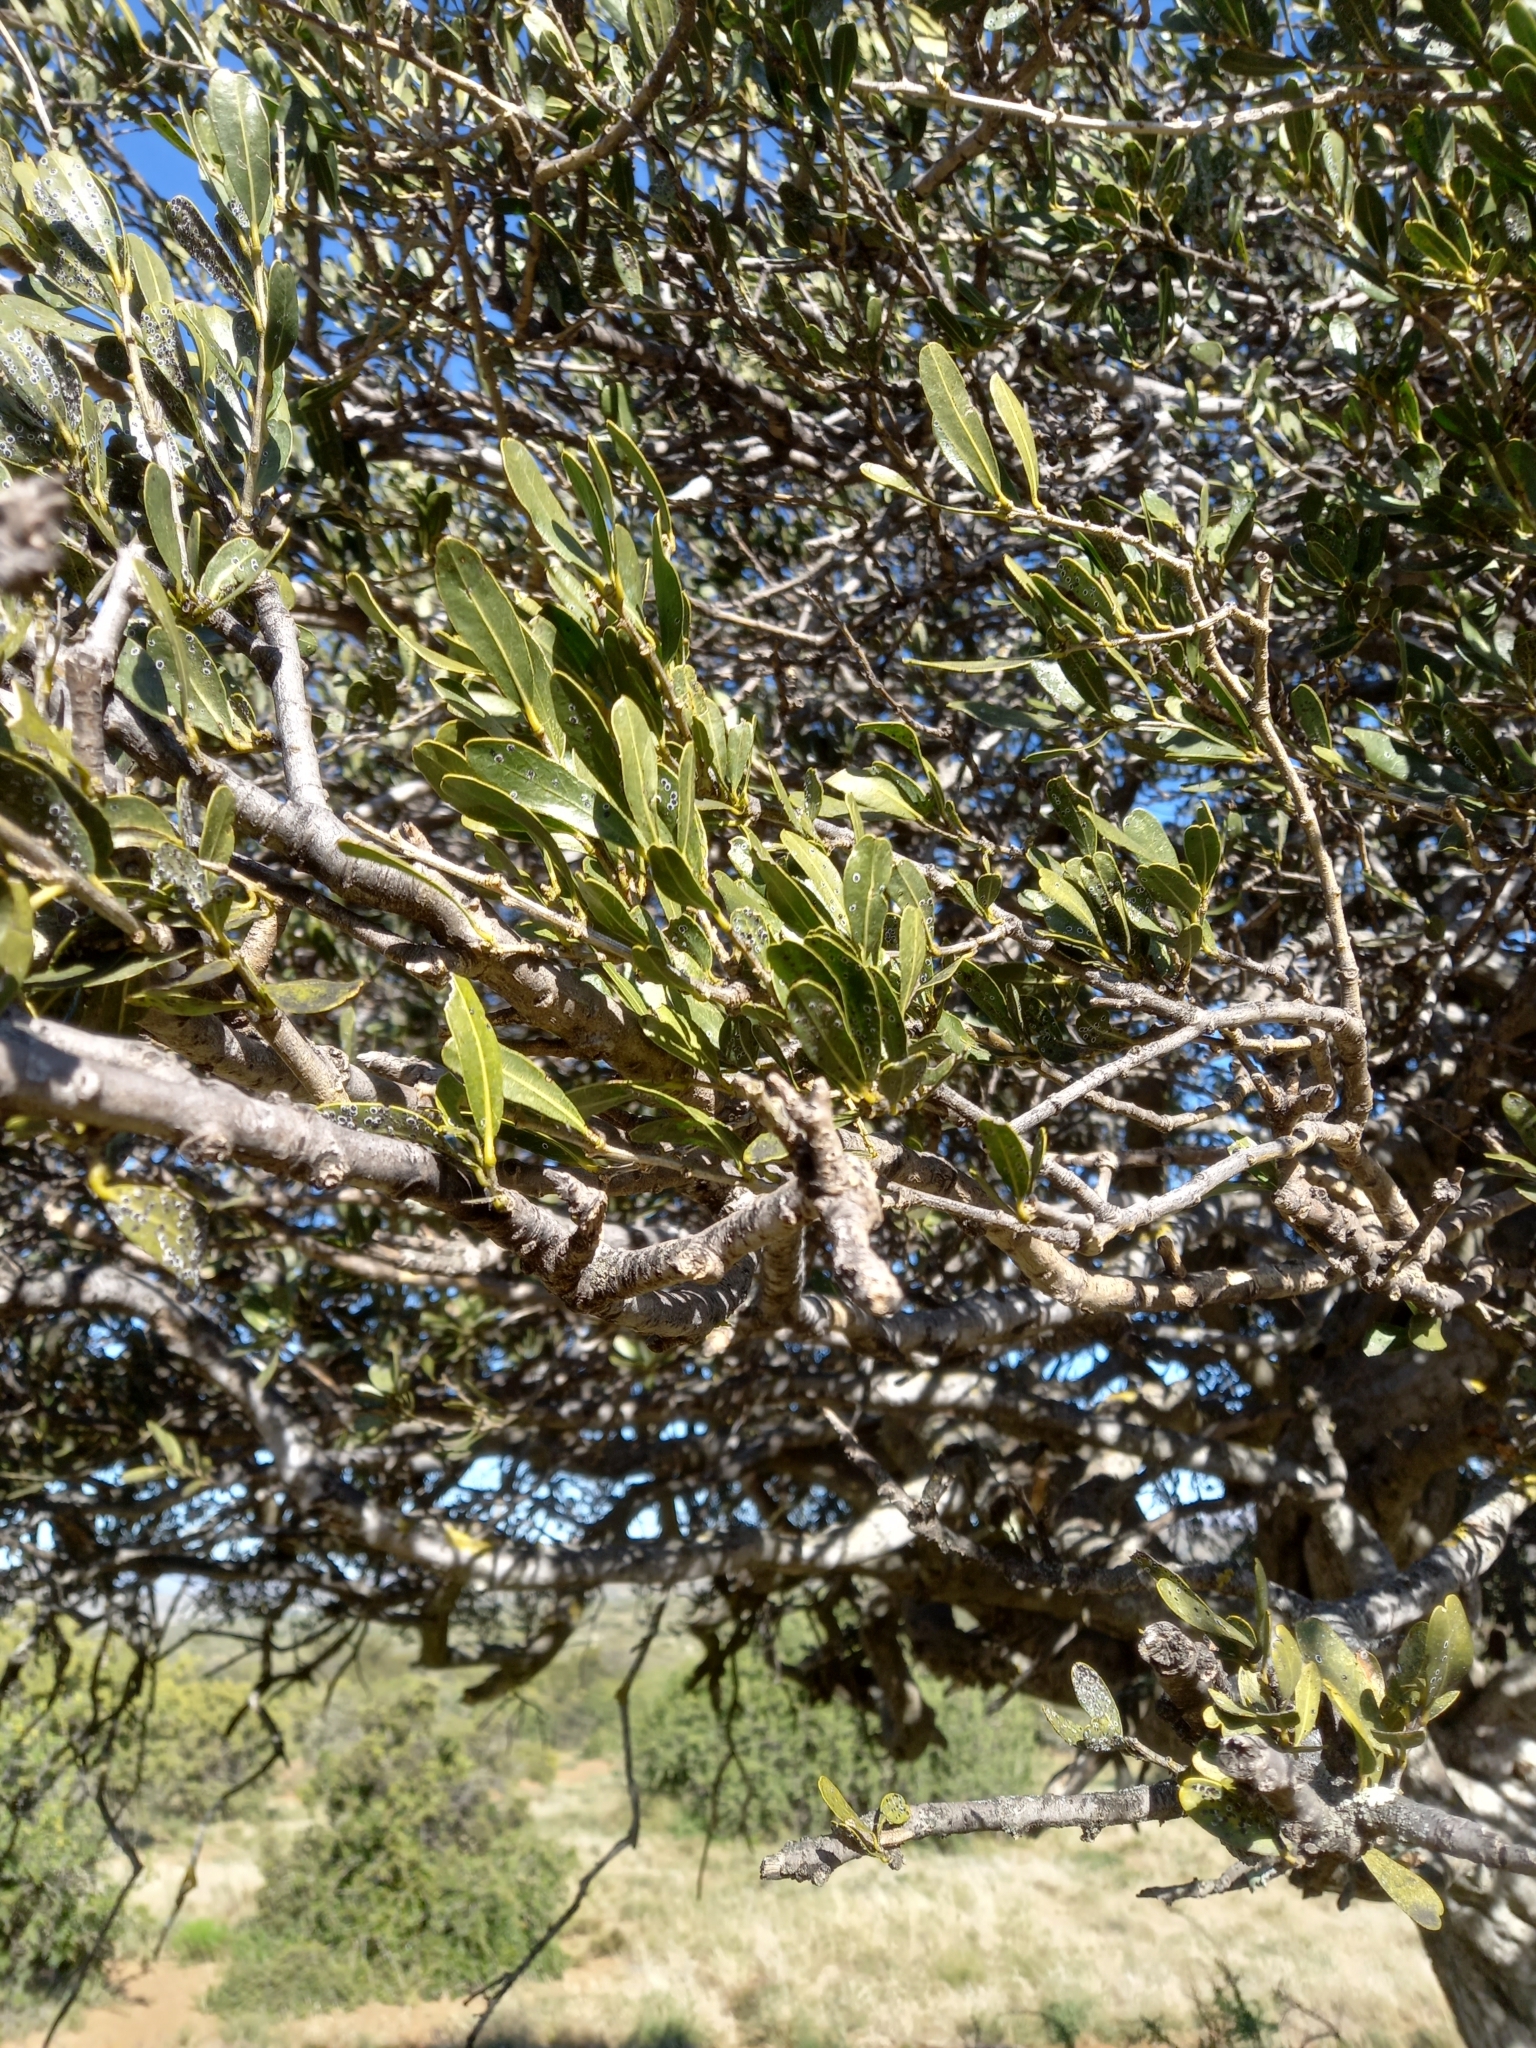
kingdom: Plantae
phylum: Tracheophyta
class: Magnoliopsida
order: Brassicales
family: Capparaceae
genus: Boscia
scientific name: Boscia oleoides
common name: Karoo shepherd tree
